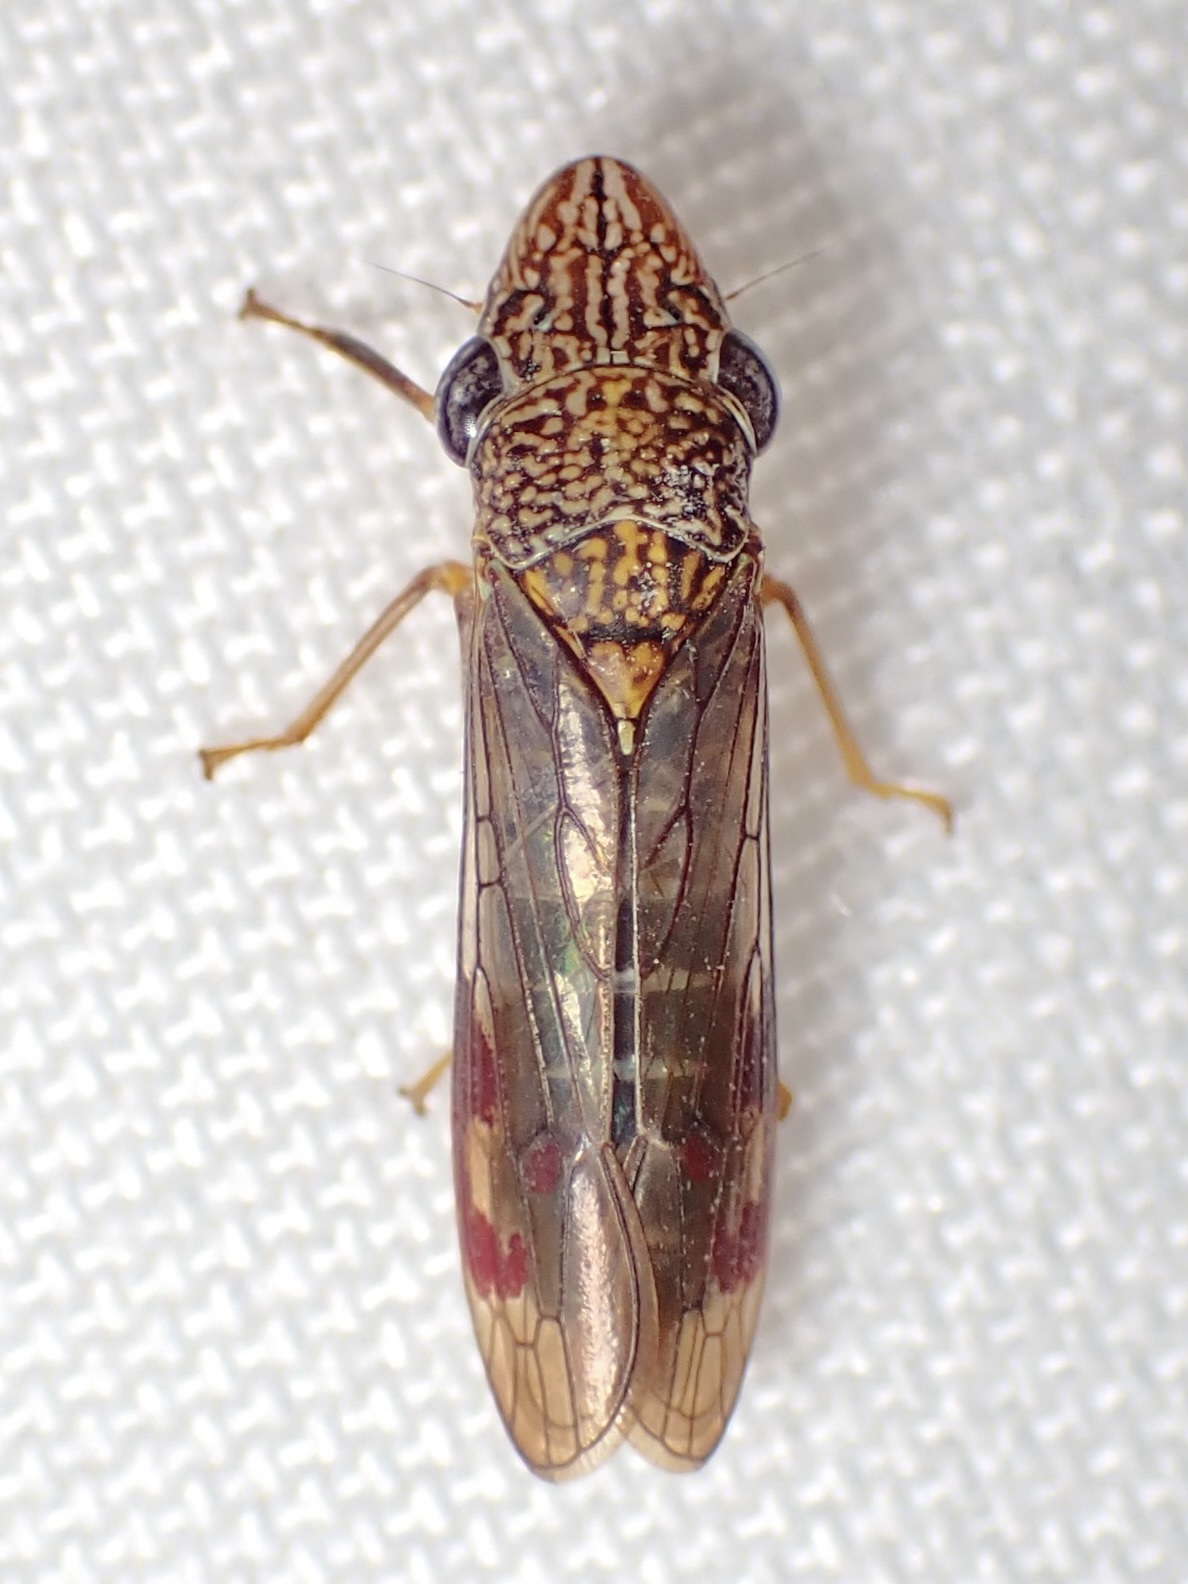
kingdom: Animalia
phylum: Arthropoda
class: Insecta
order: Hemiptera
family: Cicadellidae
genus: Homalodisca
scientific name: Homalodisca liturata
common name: Lacertate sharpshooter
